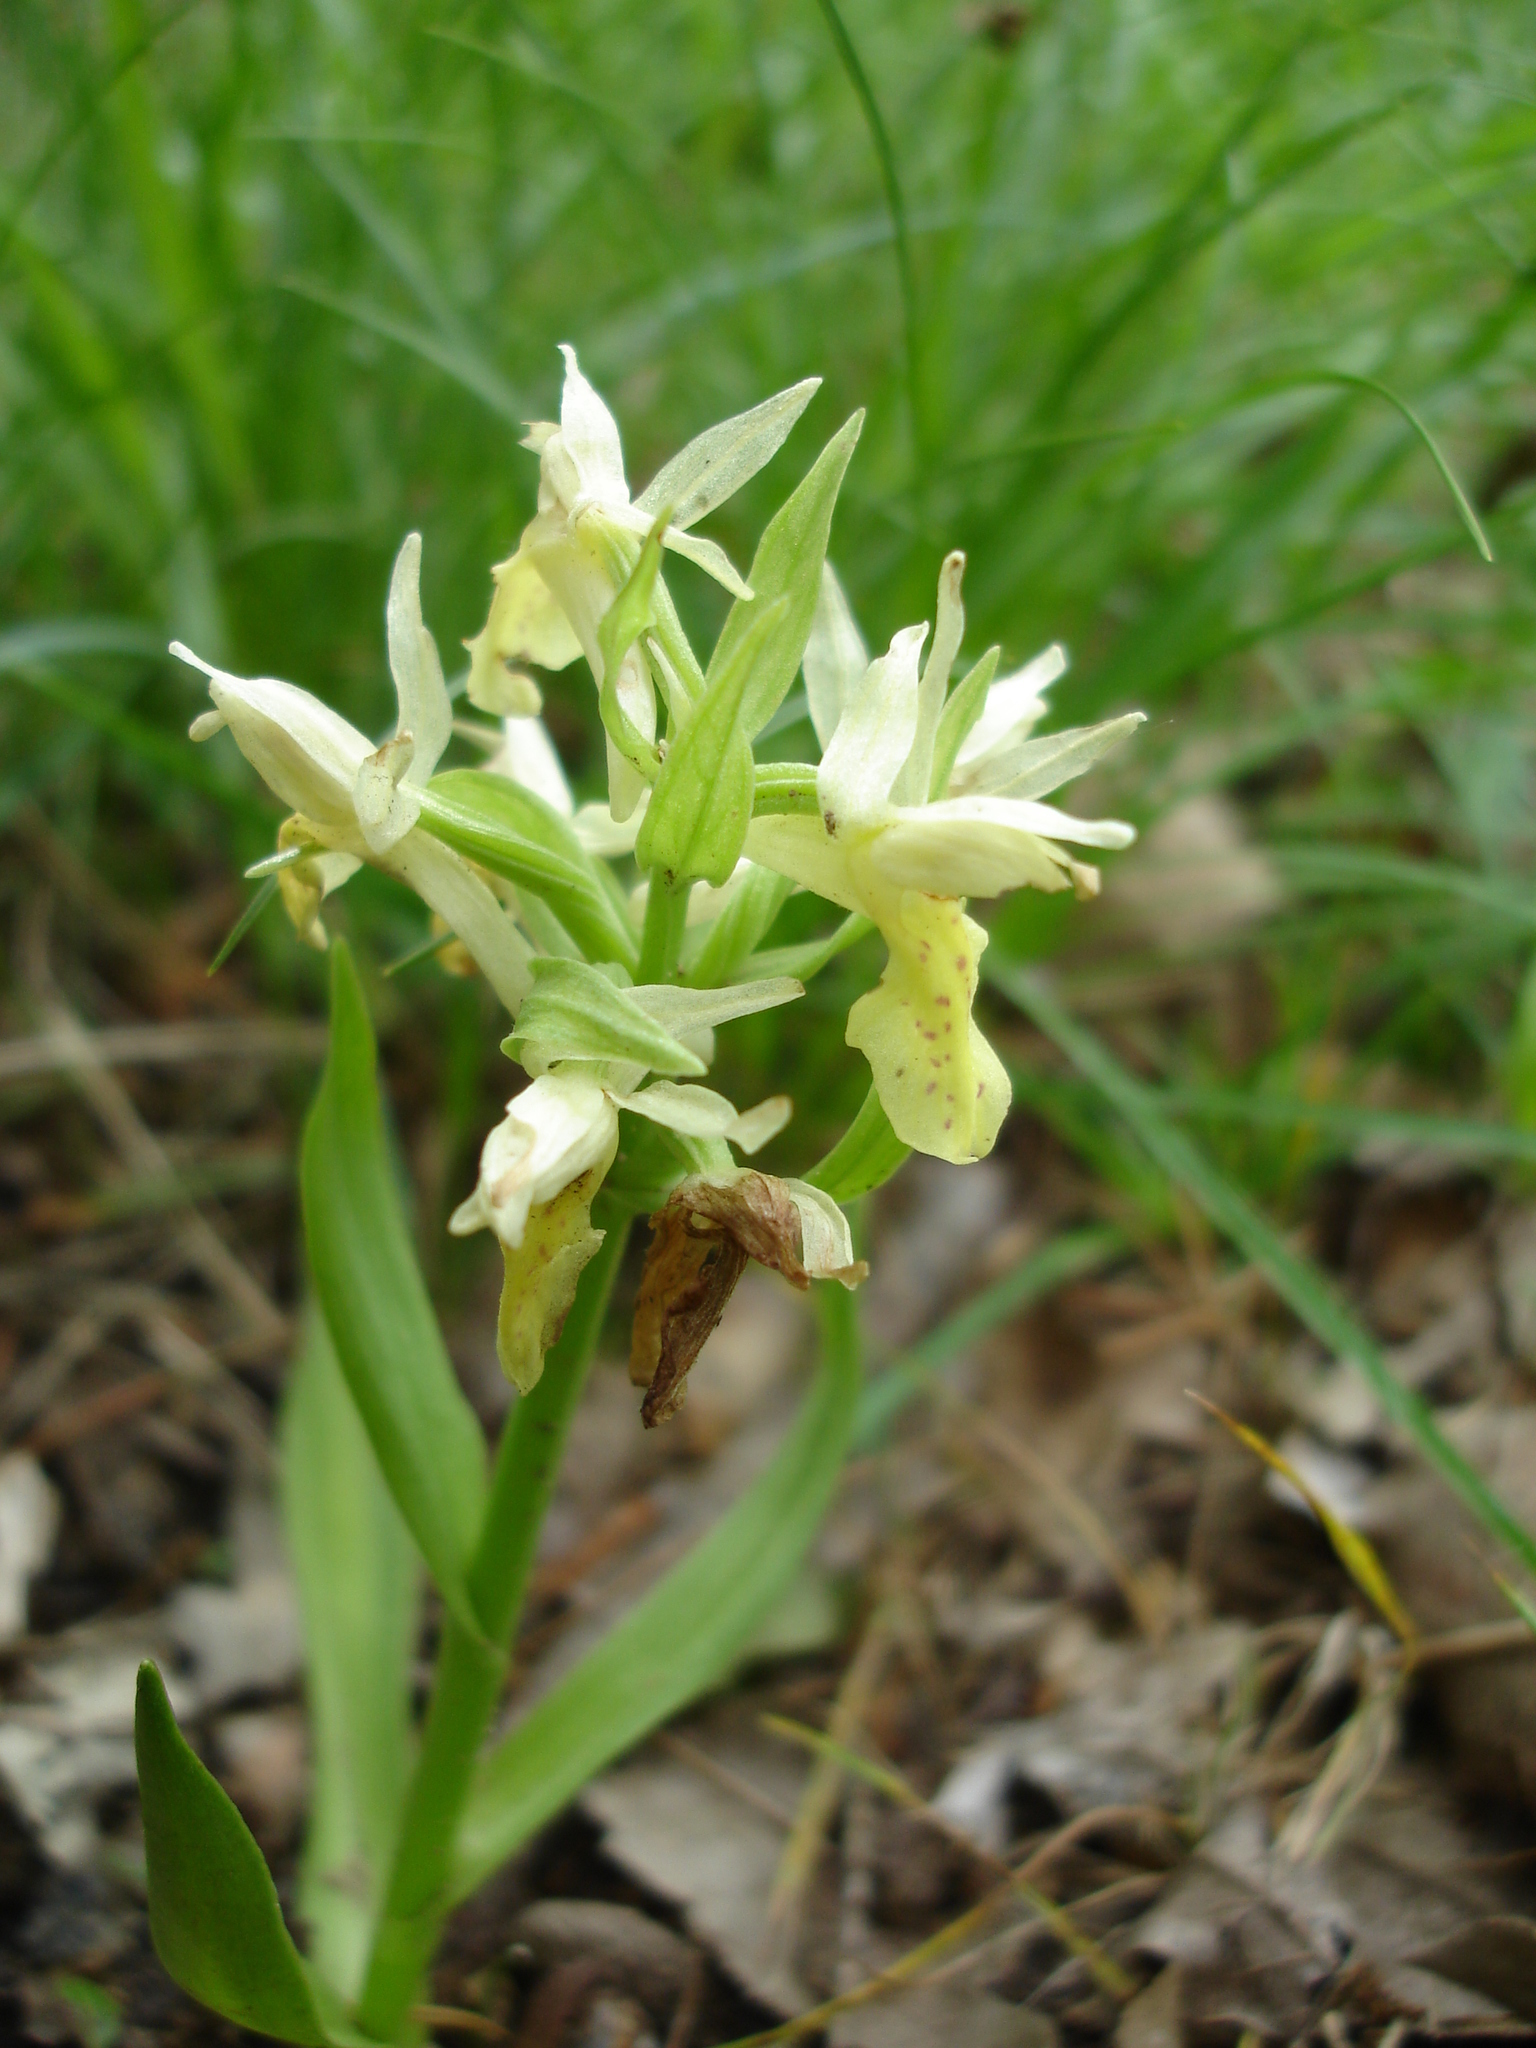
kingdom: Plantae
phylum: Tracheophyta
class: Liliopsida
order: Asparagales
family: Orchidaceae
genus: Dactylorhiza
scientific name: Dactylorhiza sambucina
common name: Elder-flowered orchid
